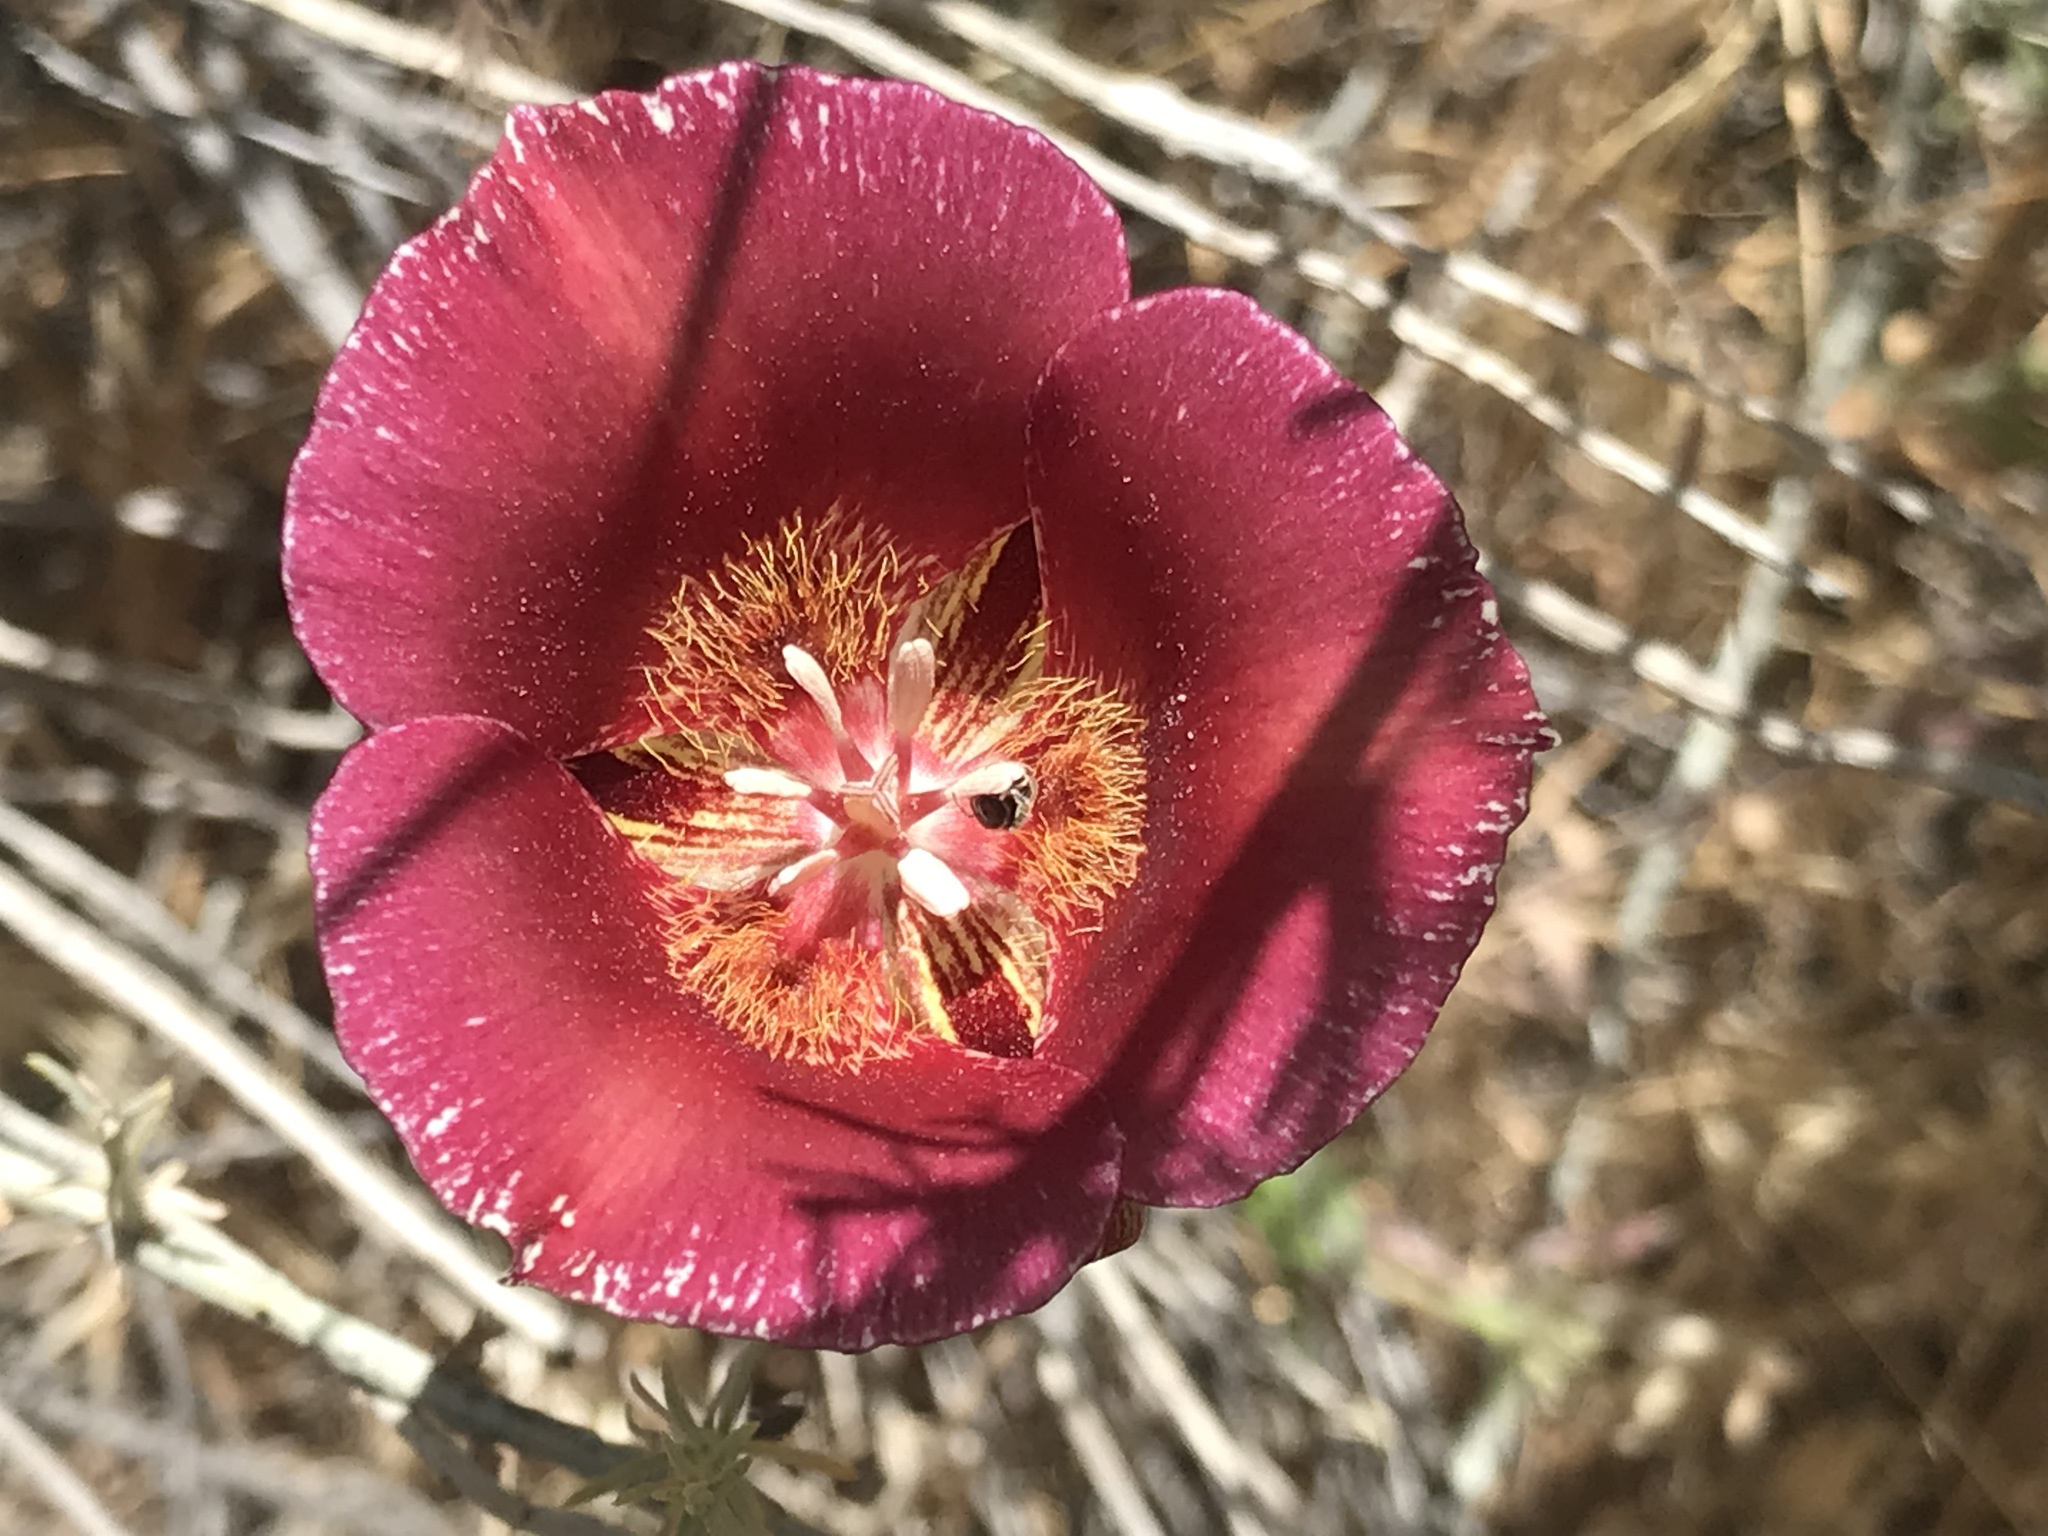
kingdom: Plantae
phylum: Tracheophyta
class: Liliopsida
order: Liliales
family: Liliaceae
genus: Calochortus
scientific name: Calochortus venustus
